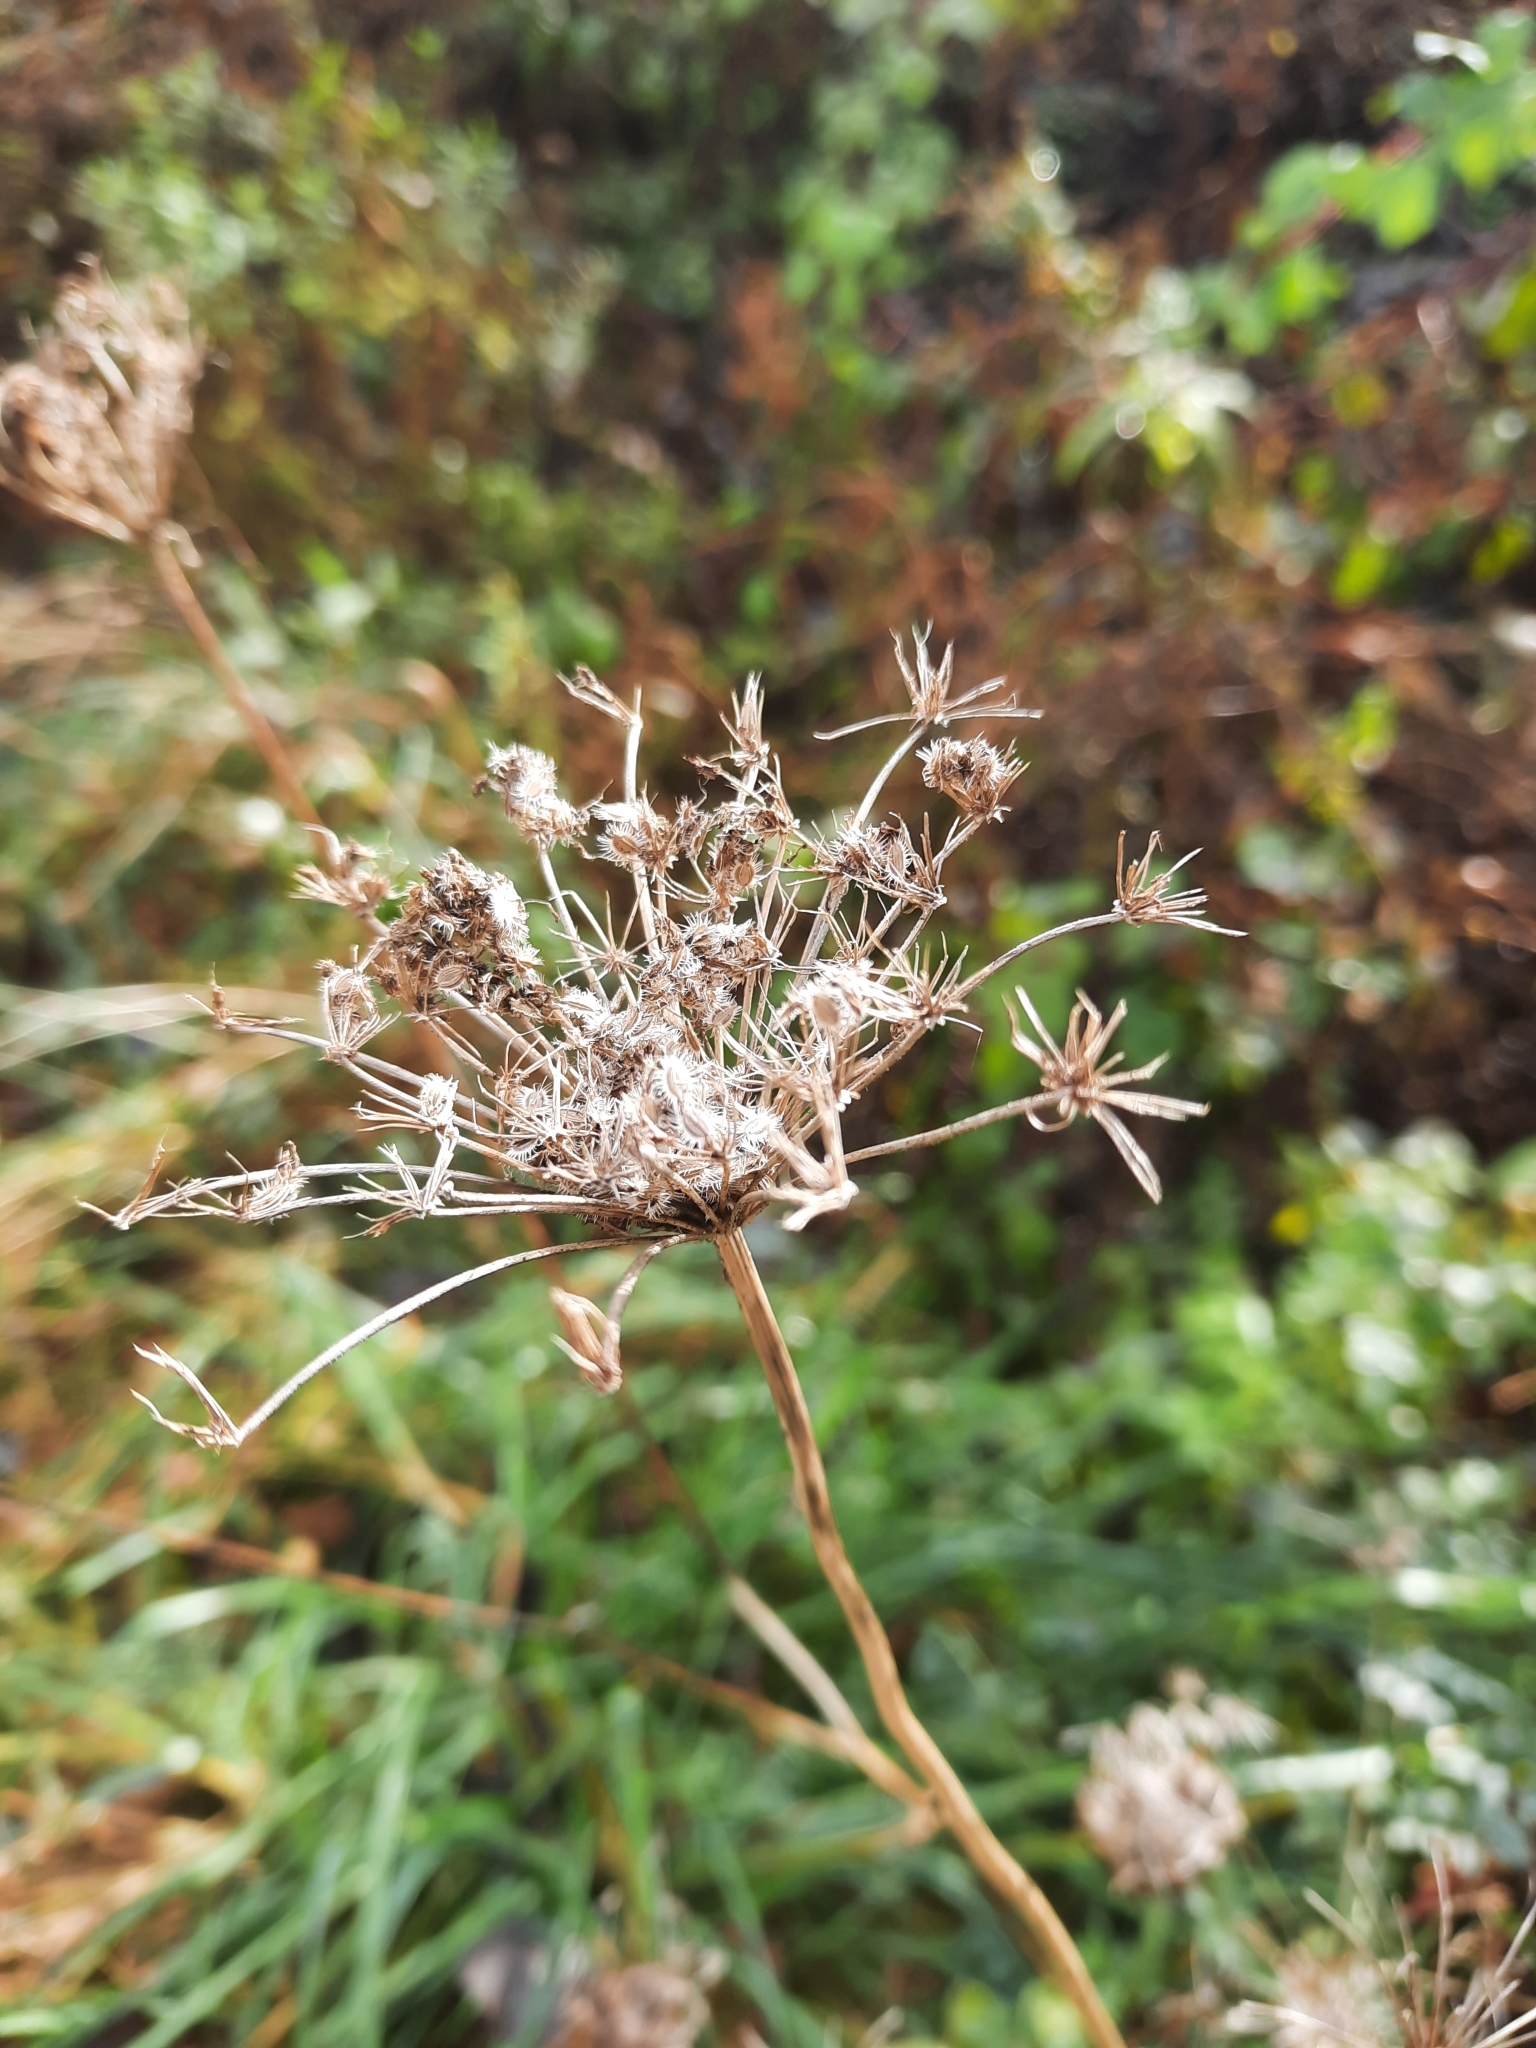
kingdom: Plantae
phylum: Tracheophyta
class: Magnoliopsida
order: Apiales
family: Apiaceae
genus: Daucus
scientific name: Daucus carota
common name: Wild carrot
